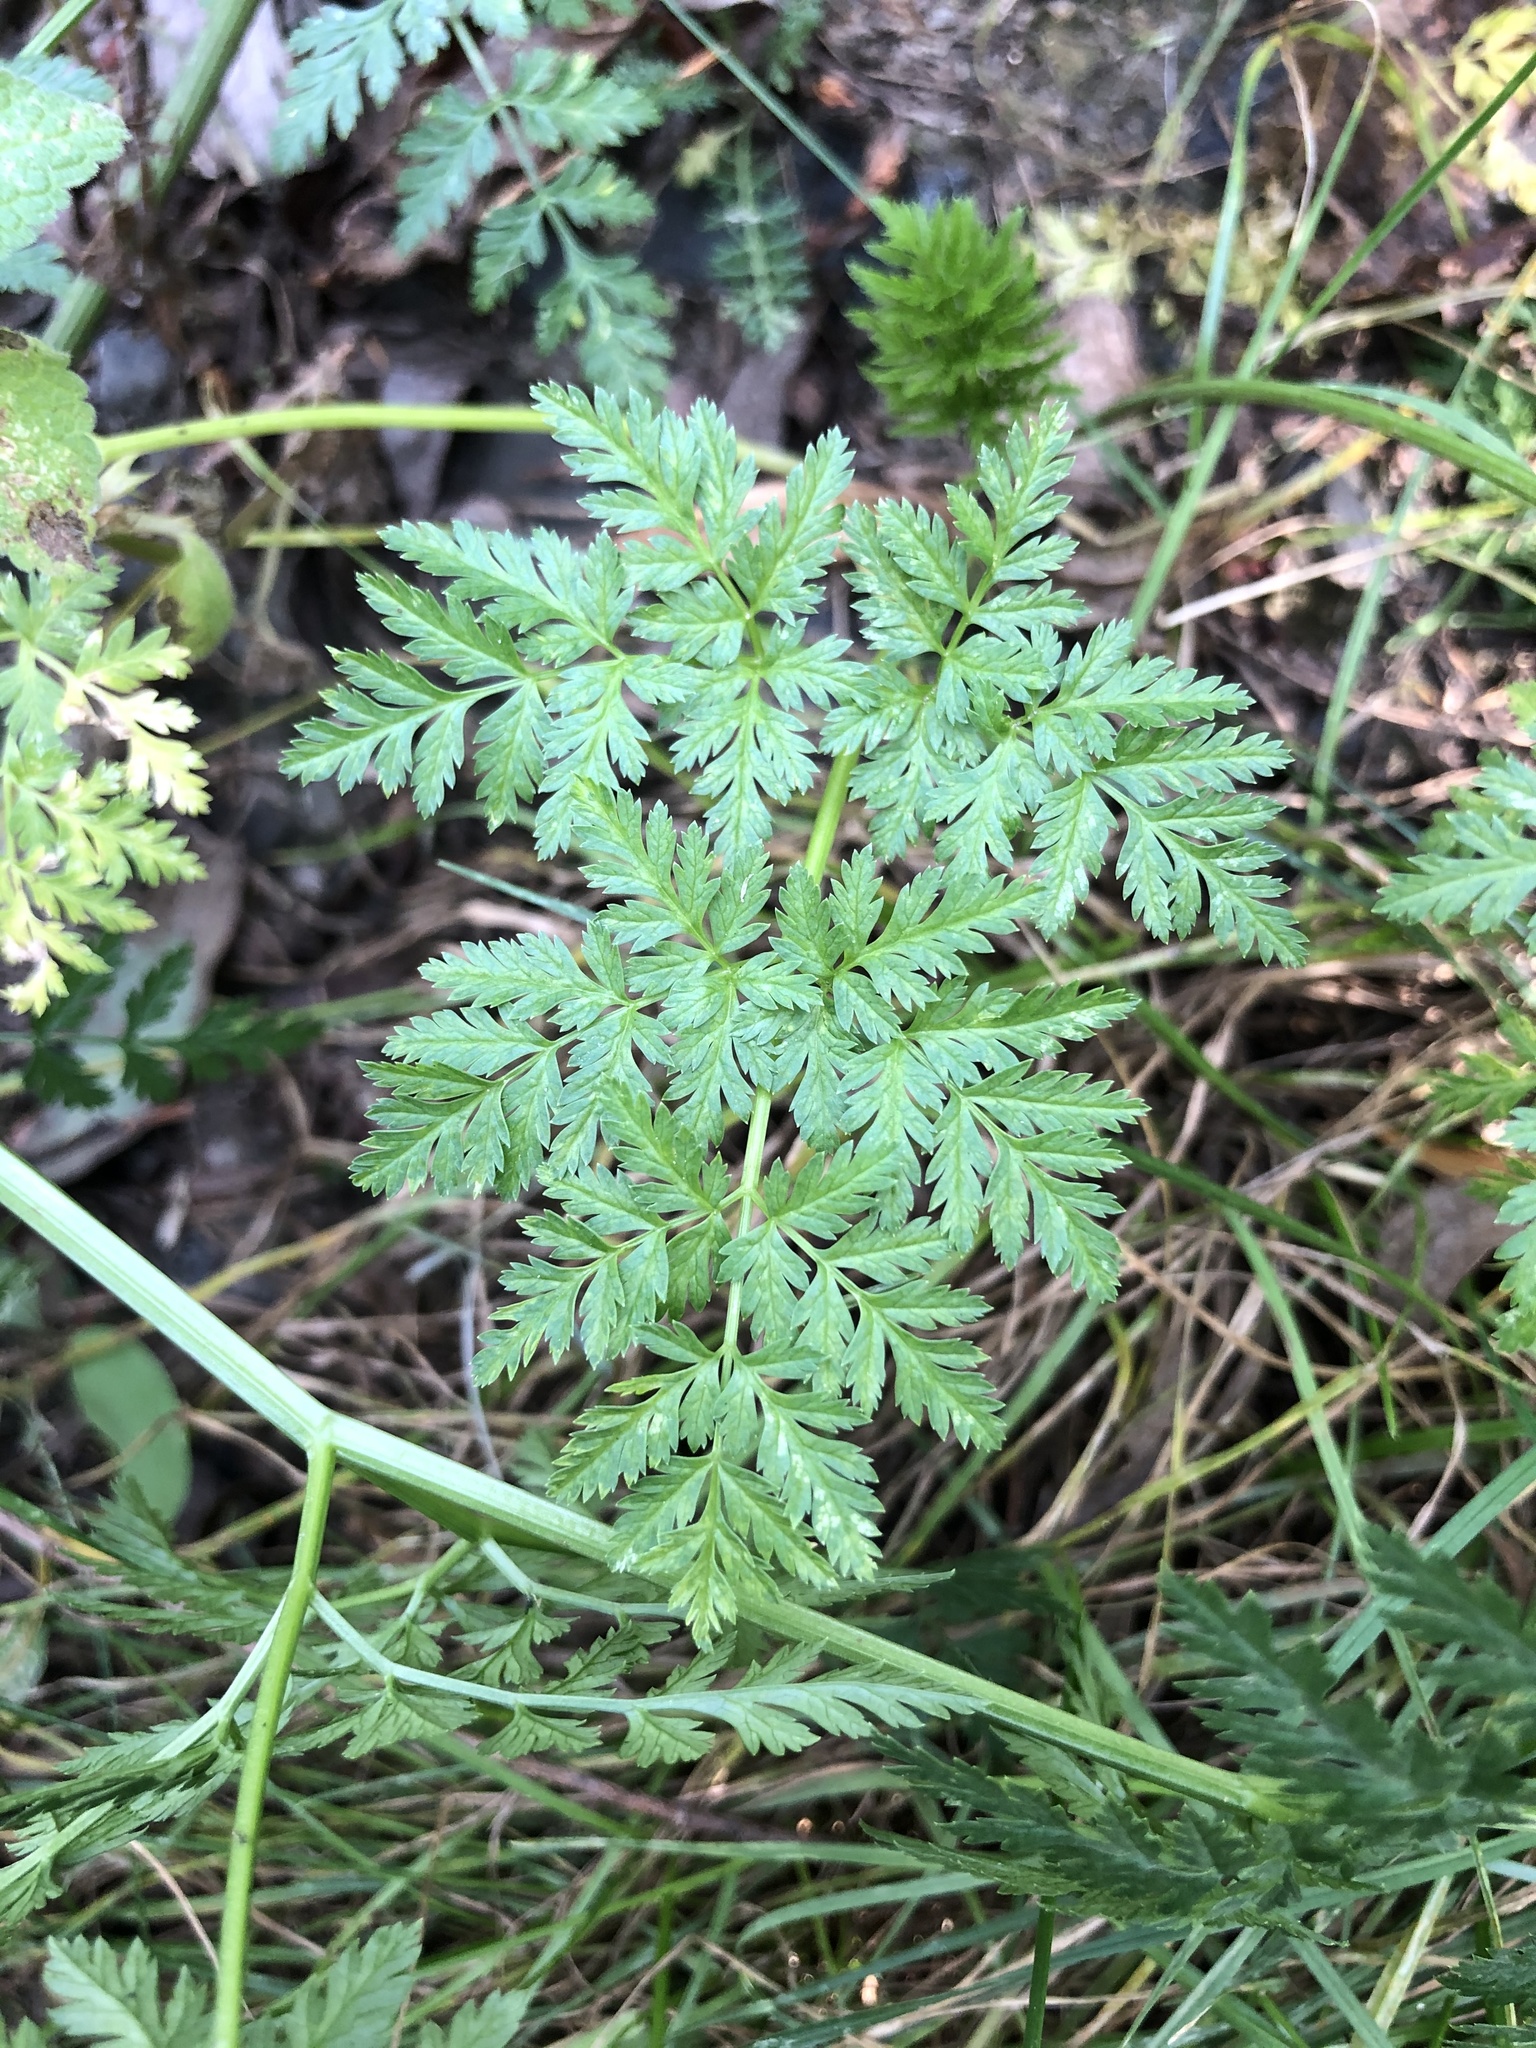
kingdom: Plantae
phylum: Tracheophyta
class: Magnoliopsida
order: Apiales
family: Apiaceae
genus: Conium
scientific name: Conium maculatum
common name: Hemlock
